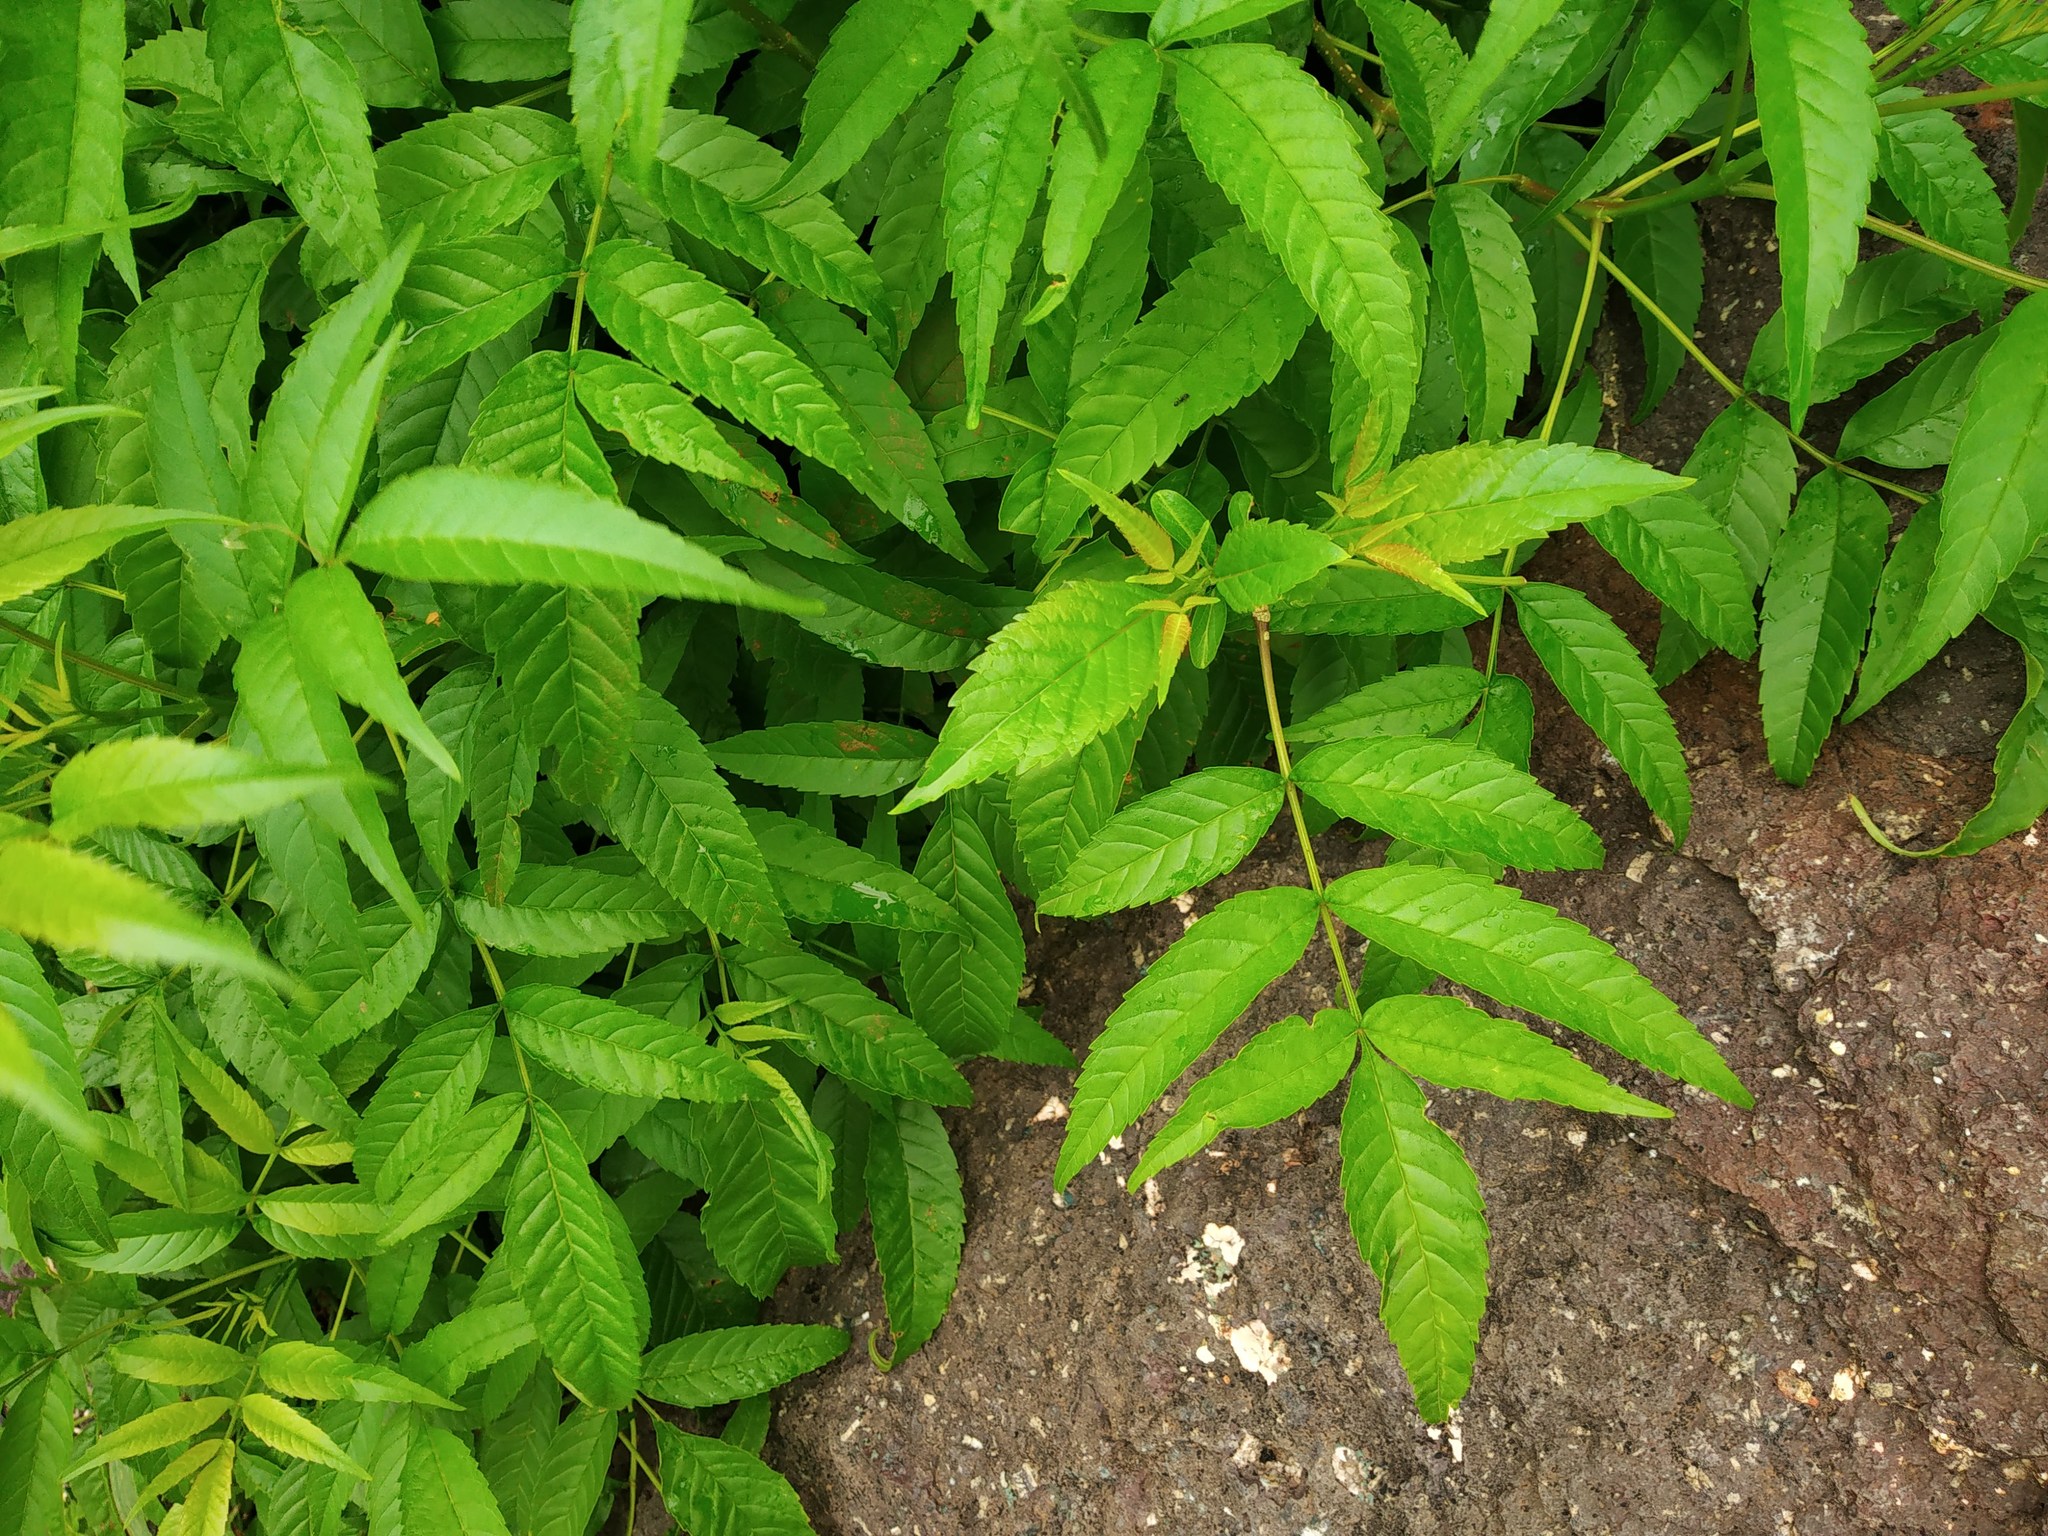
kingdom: Plantae
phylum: Tracheophyta
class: Magnoliopsida
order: Sapindales
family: Meliaceae
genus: Azadirachta
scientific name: Azadirachta indica
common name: Neem
